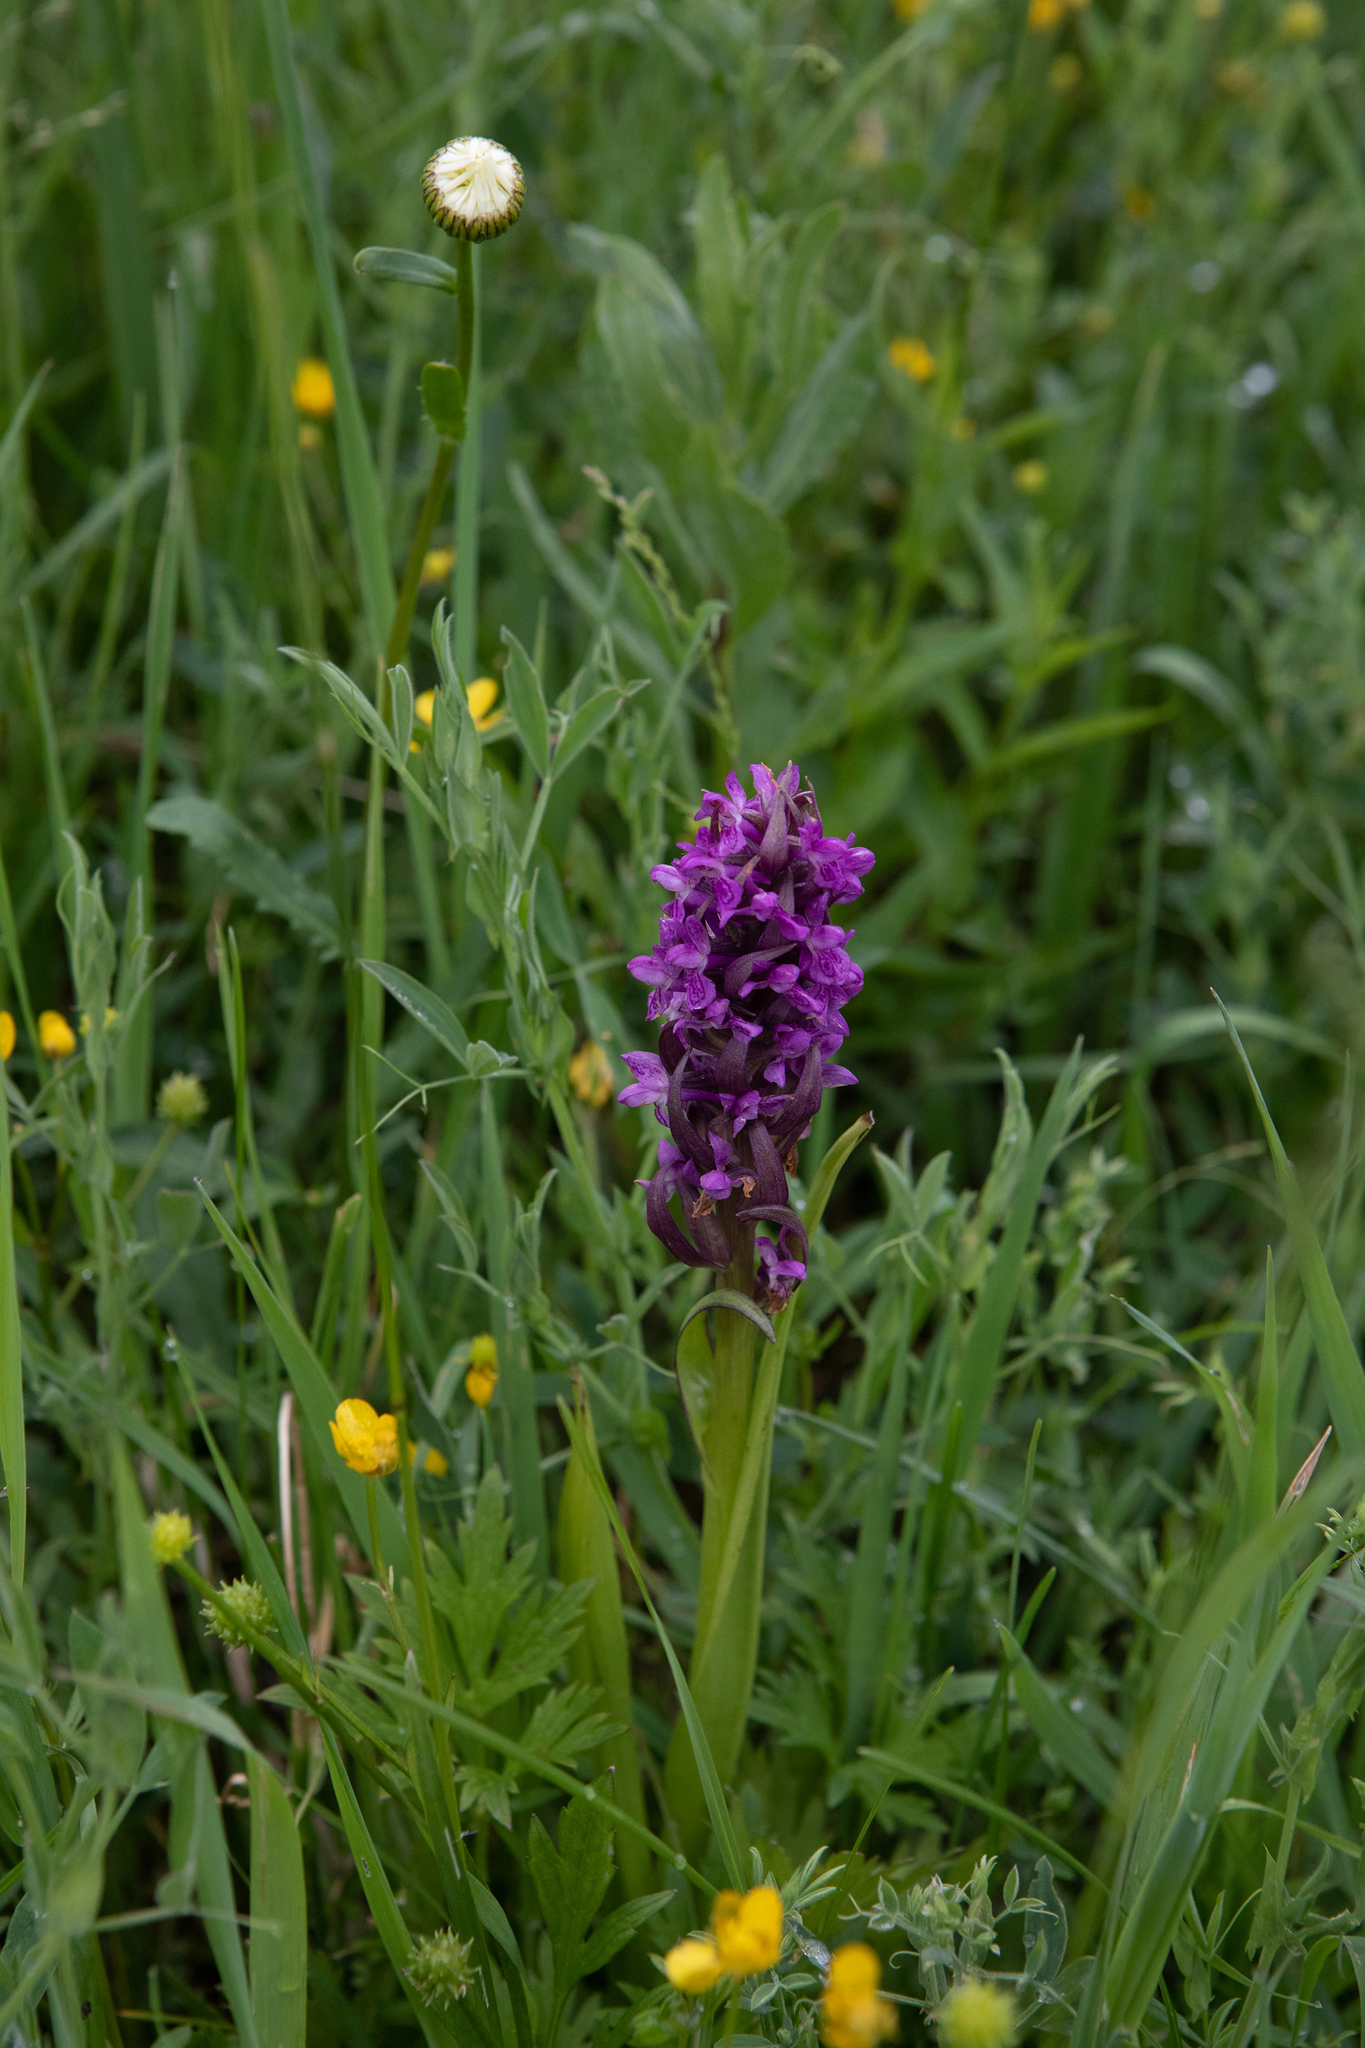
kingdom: Plantae
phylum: Tracheophyta
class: Liliopsida
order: Asparagales
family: Orchidaceae
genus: Dactylorhiza
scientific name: Dactylorhiza incarnata
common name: Early marsh-orchid
